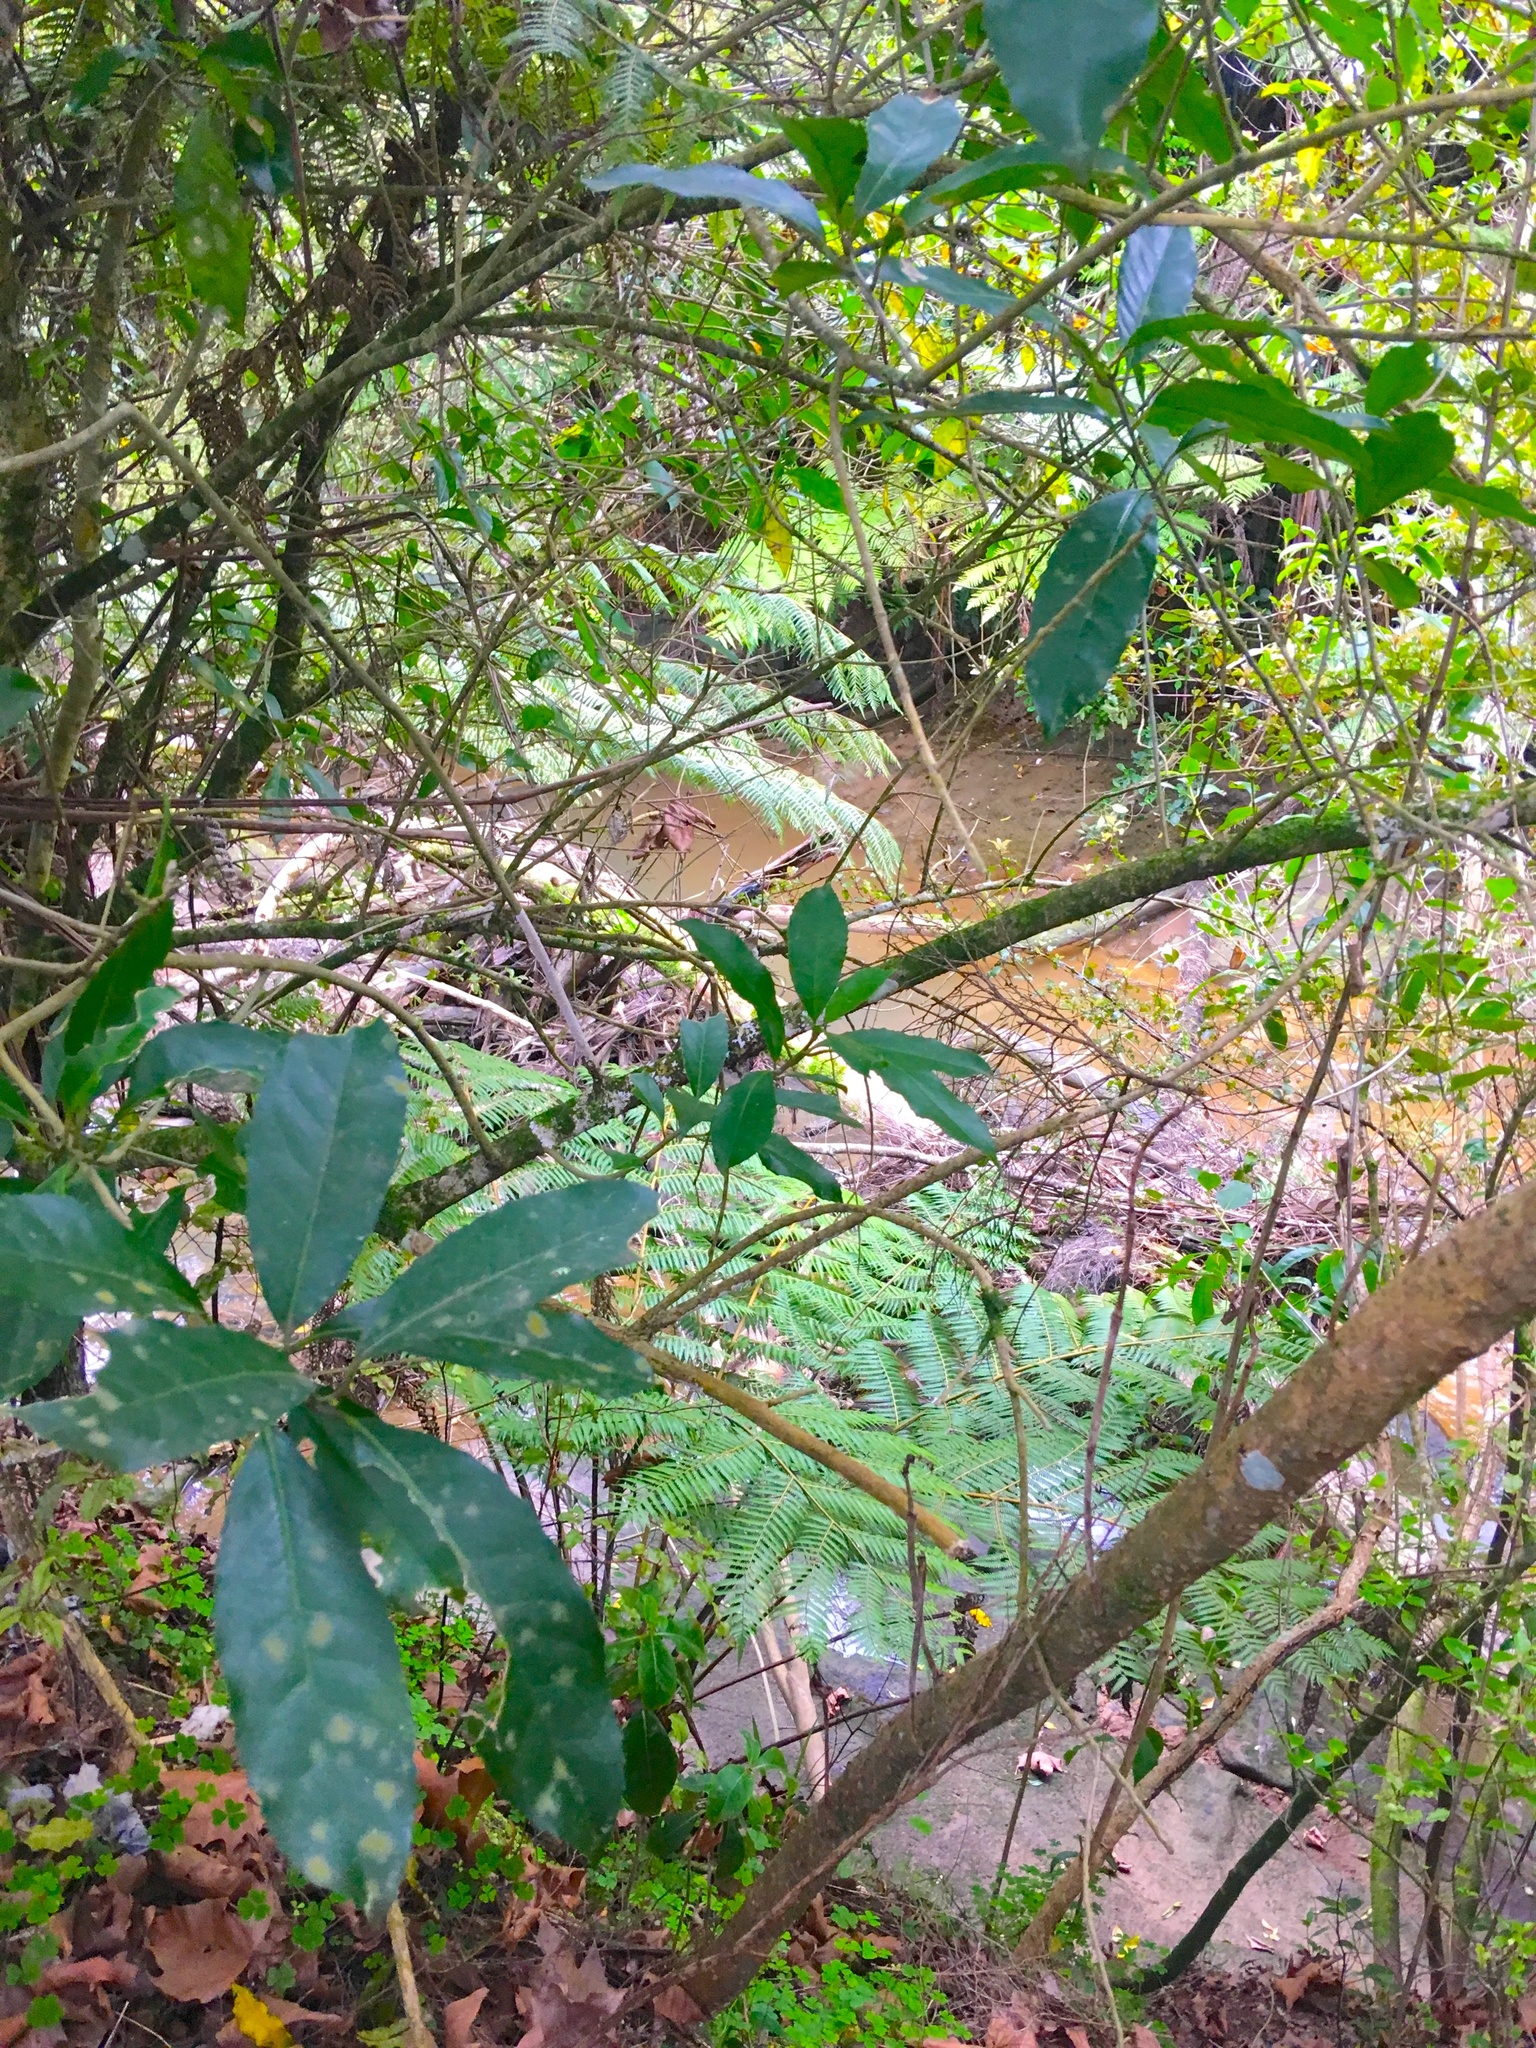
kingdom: Plantae
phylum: Tracheophyta
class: Magnoliopsida
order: Malpighiales
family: Violaceae
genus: Melicytus
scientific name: Melicytus ramiflorus
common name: Mahoe
